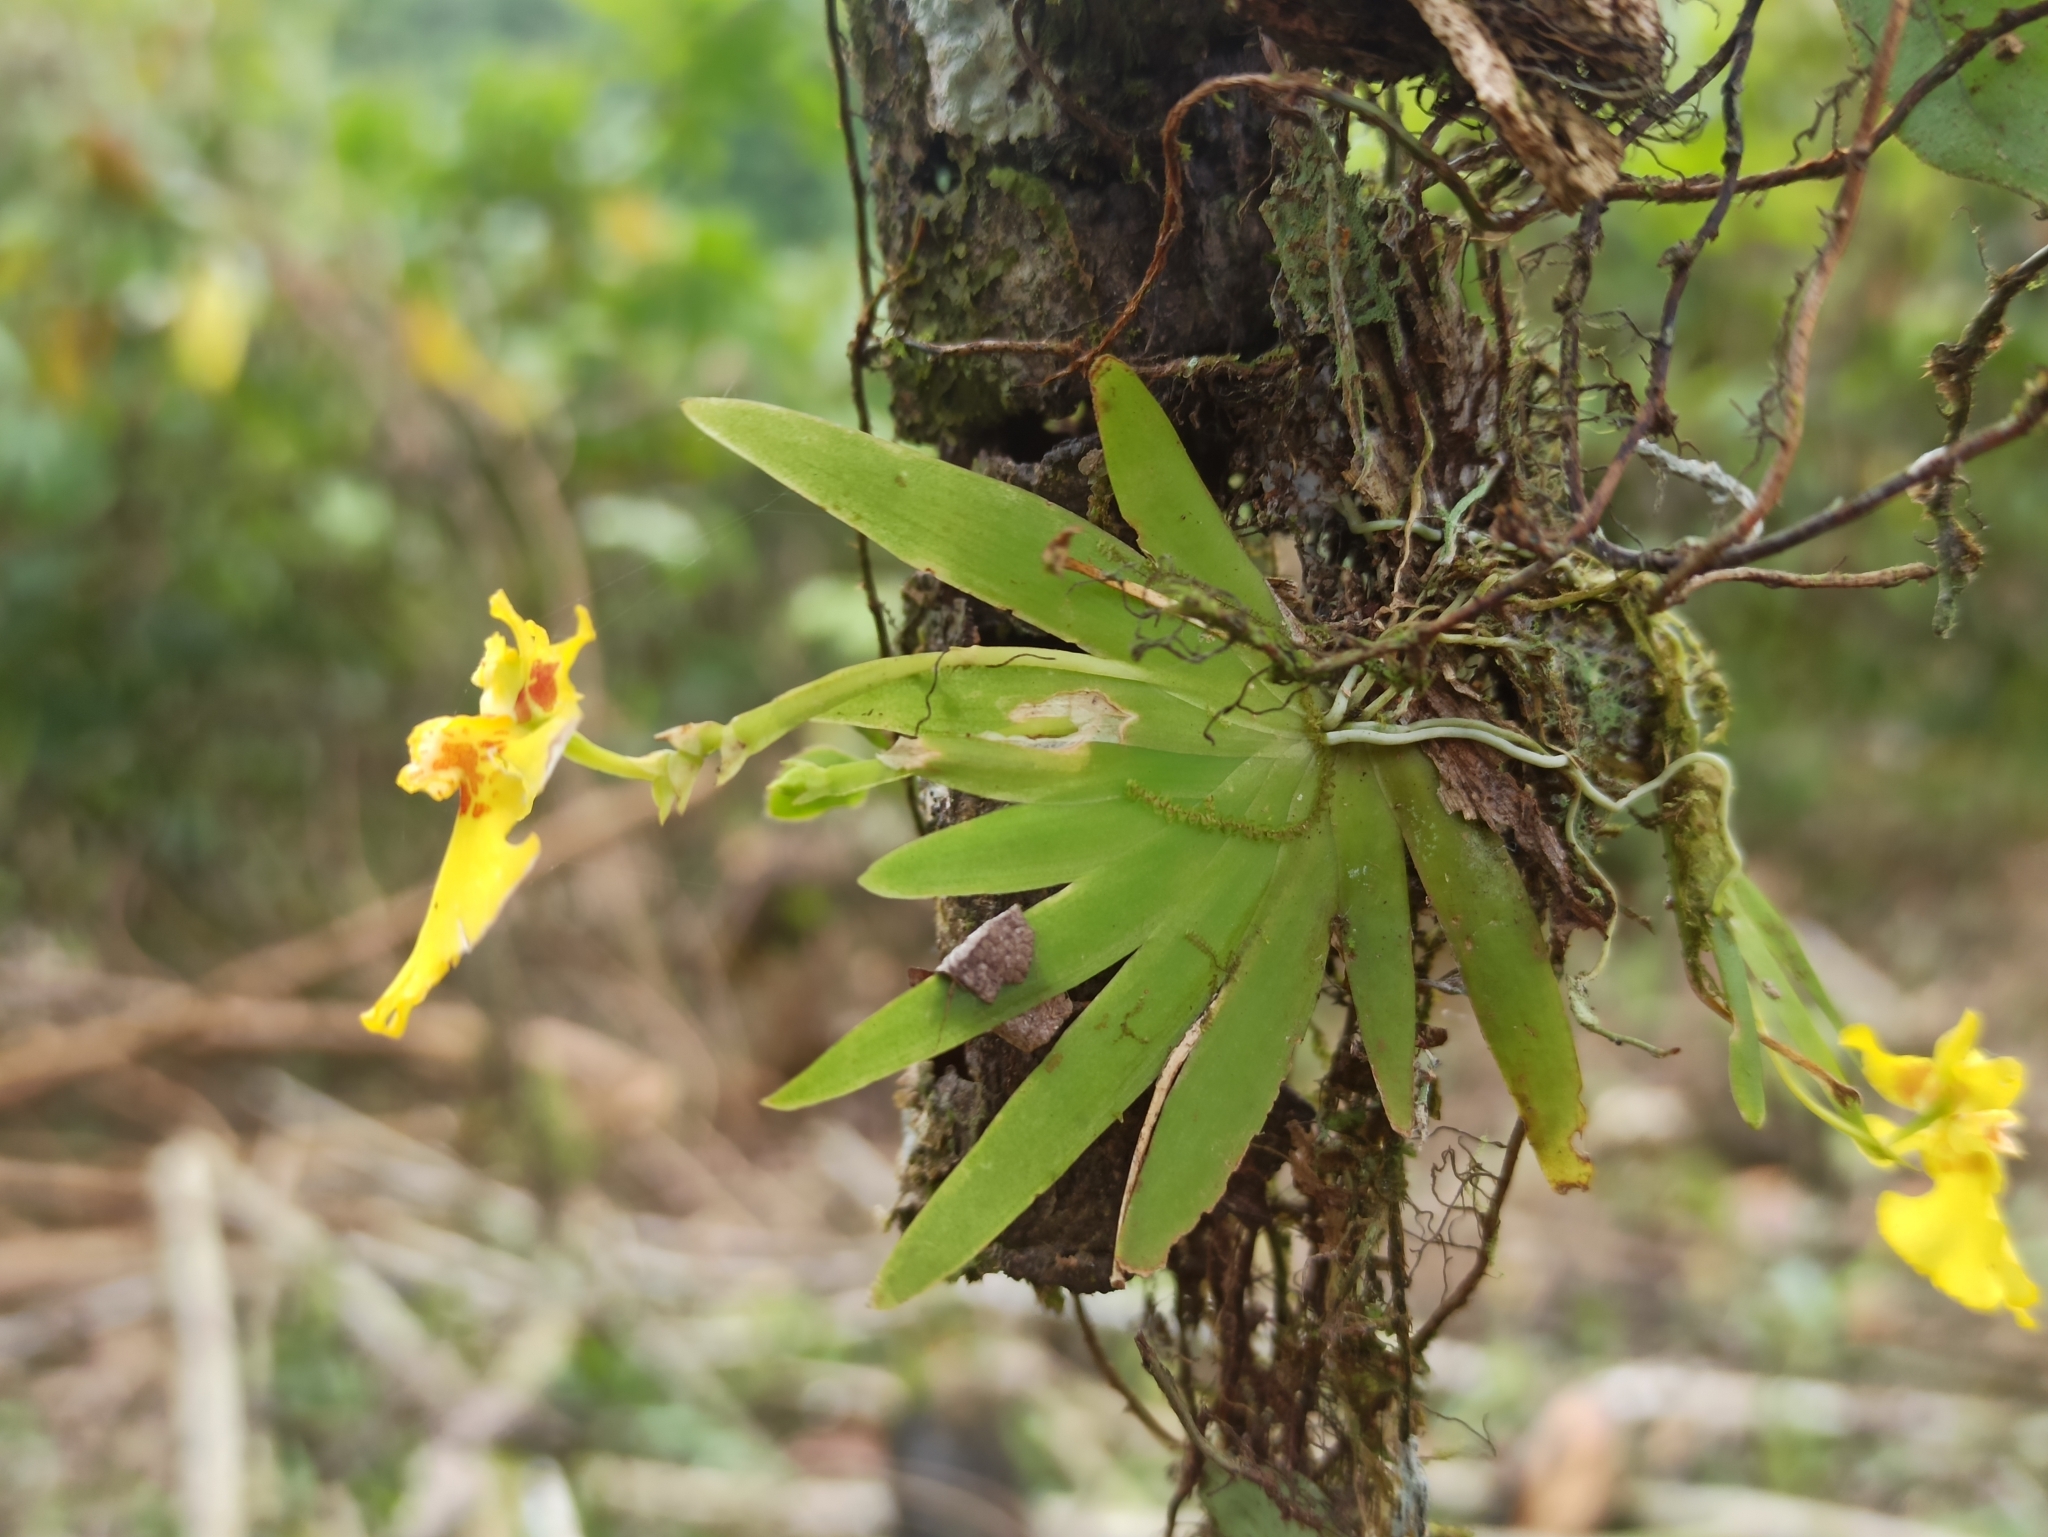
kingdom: Plantae
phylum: Tracheophyta
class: Liliopsida
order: Asparagales
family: Orchidaceae
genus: Erycina
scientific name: Erycina pusilla
